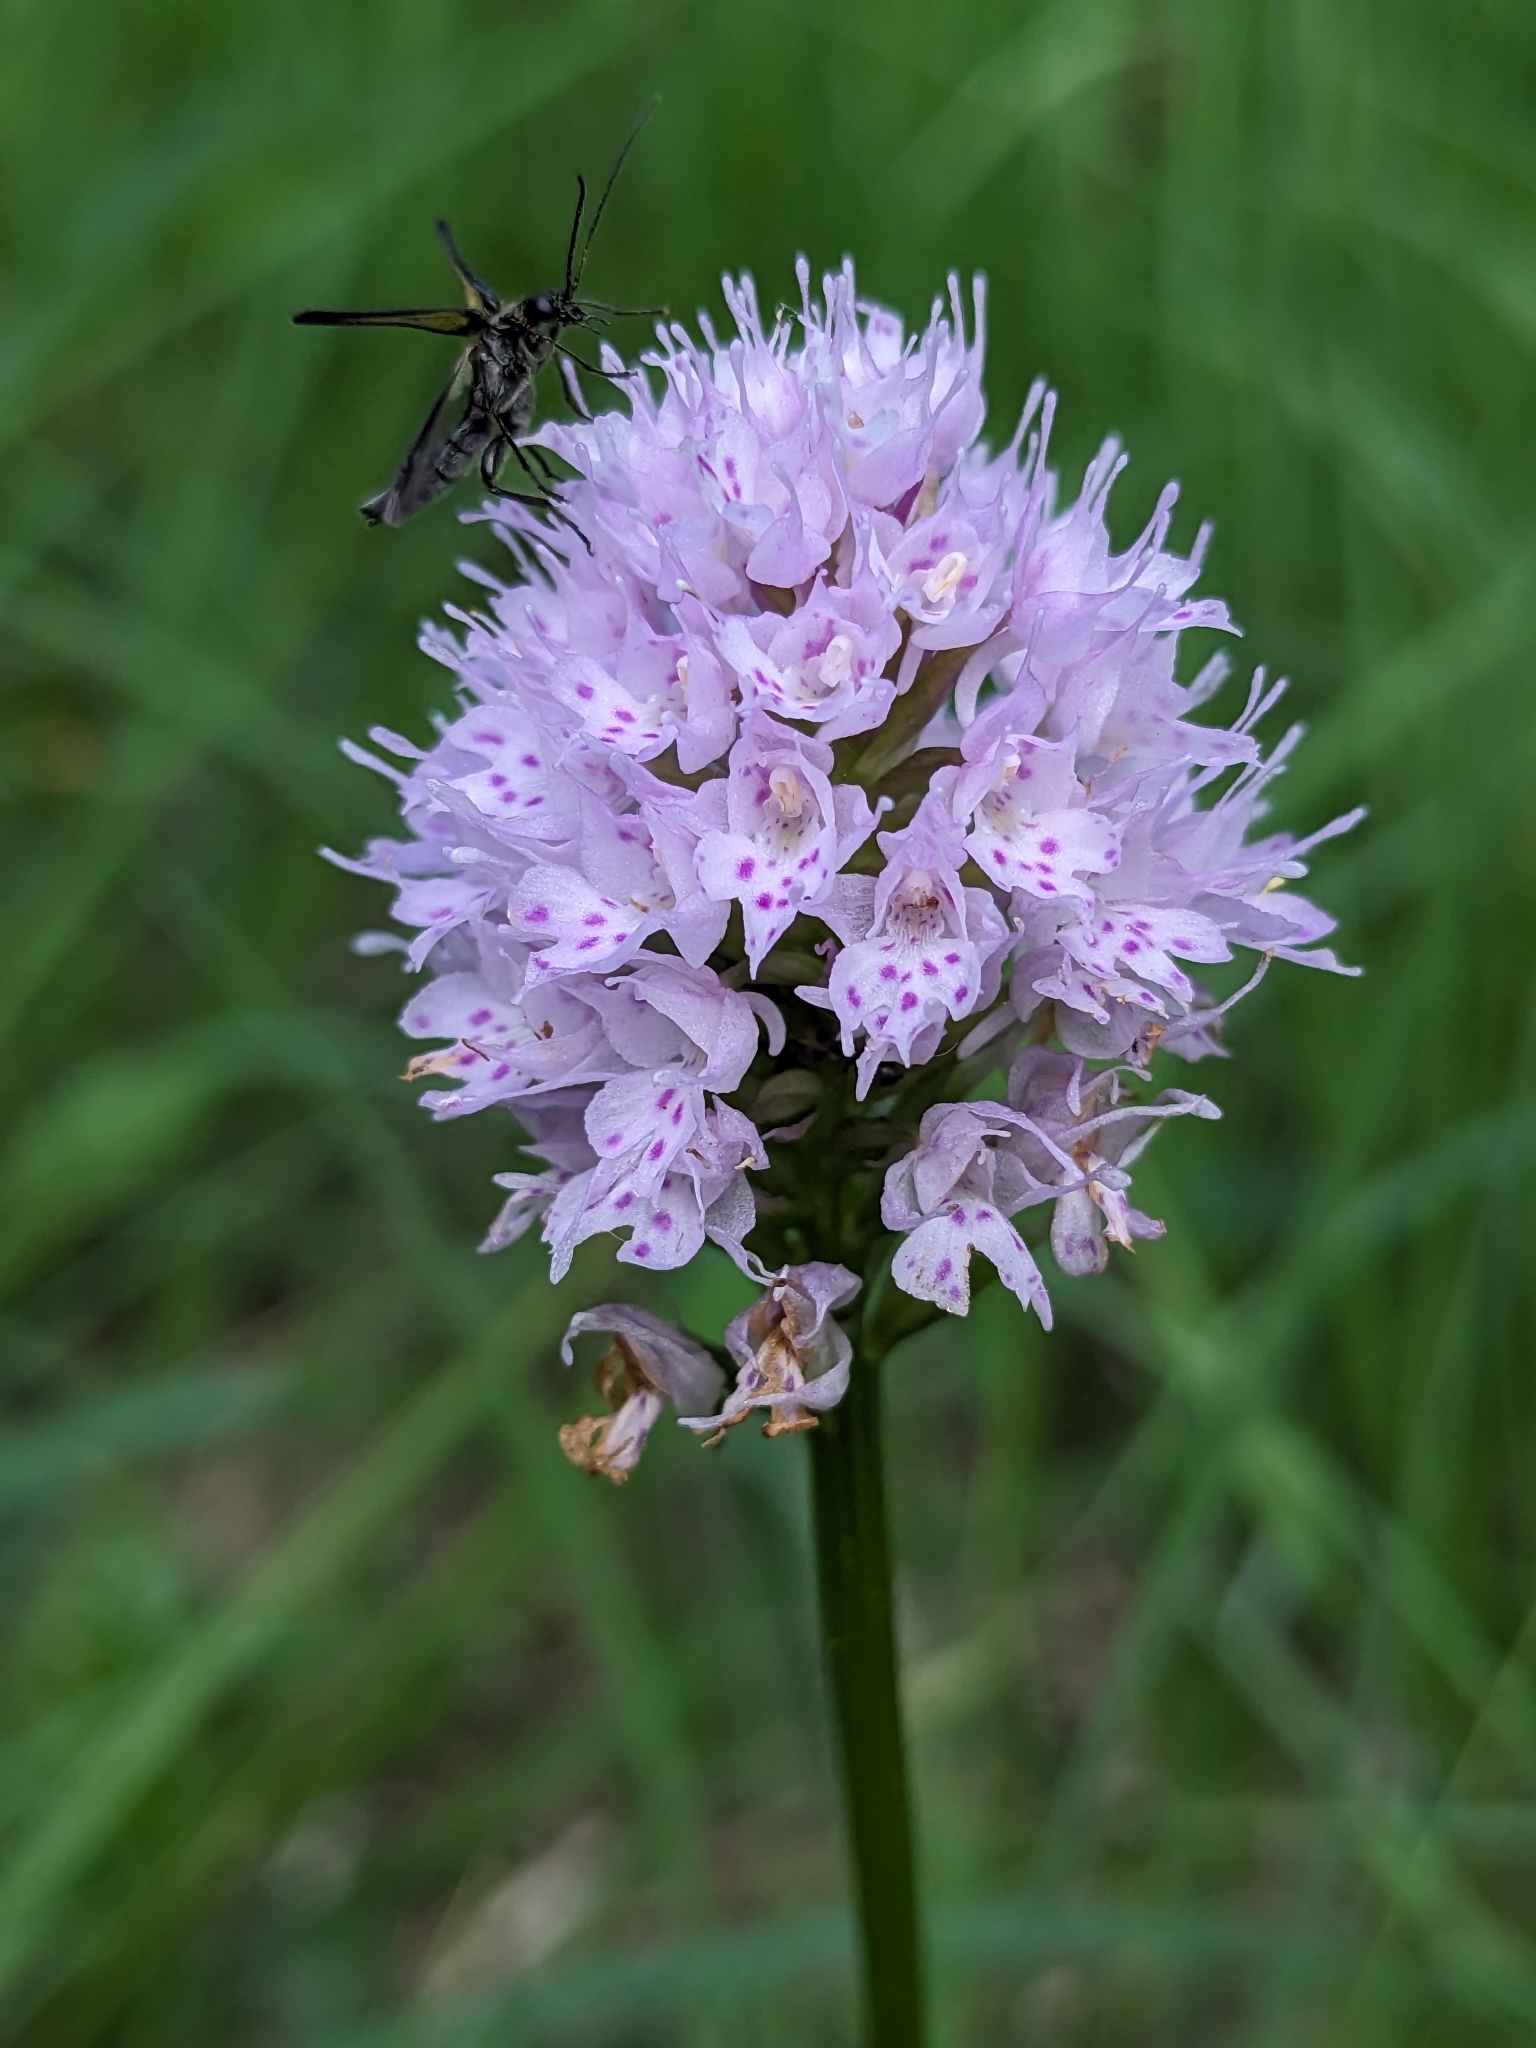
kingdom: Plantae
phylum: Tracheophyta
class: Liliopsida
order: Asparagales
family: Orchidaceae
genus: Traunsteinera
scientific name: Traunsteinera globosa
